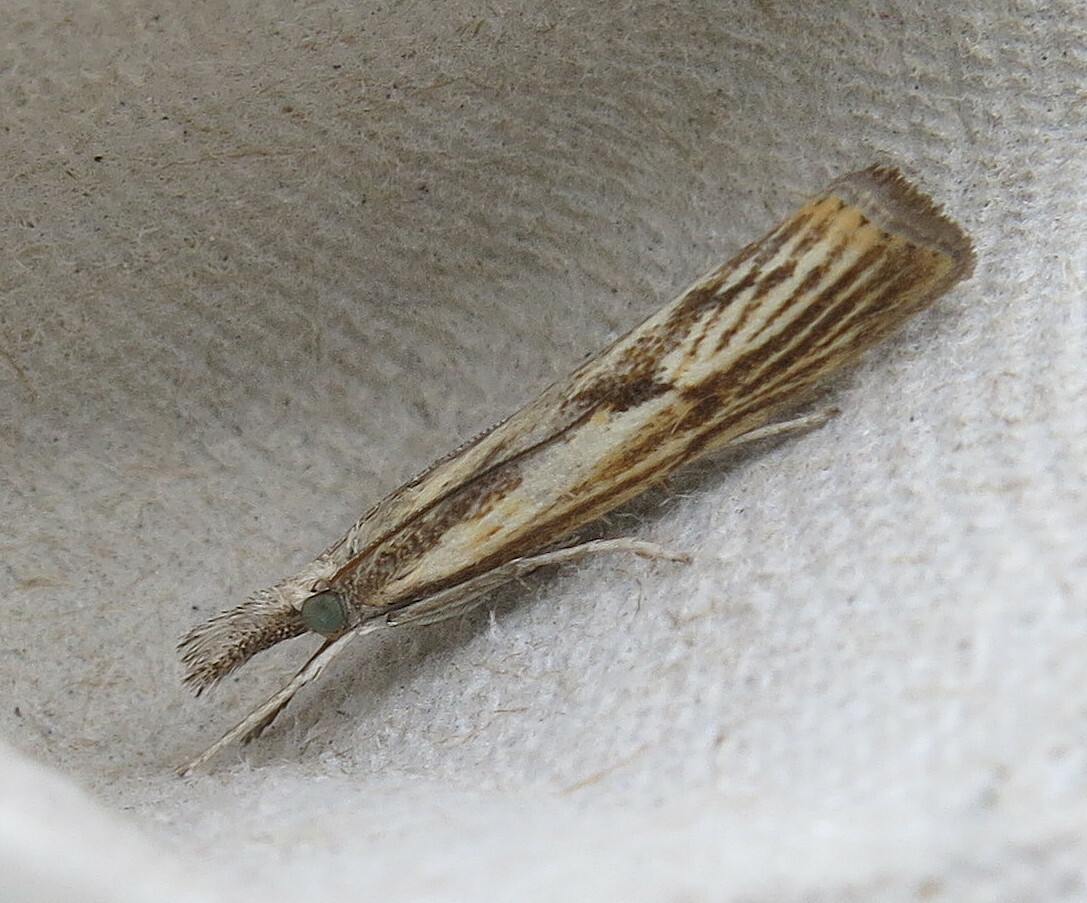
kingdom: Animalia
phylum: Arthropoda
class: Insecta
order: Lepidoptera
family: Crambidae
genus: Agriphila
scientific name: Agriphila inquinatella
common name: Barred grass-veneer
